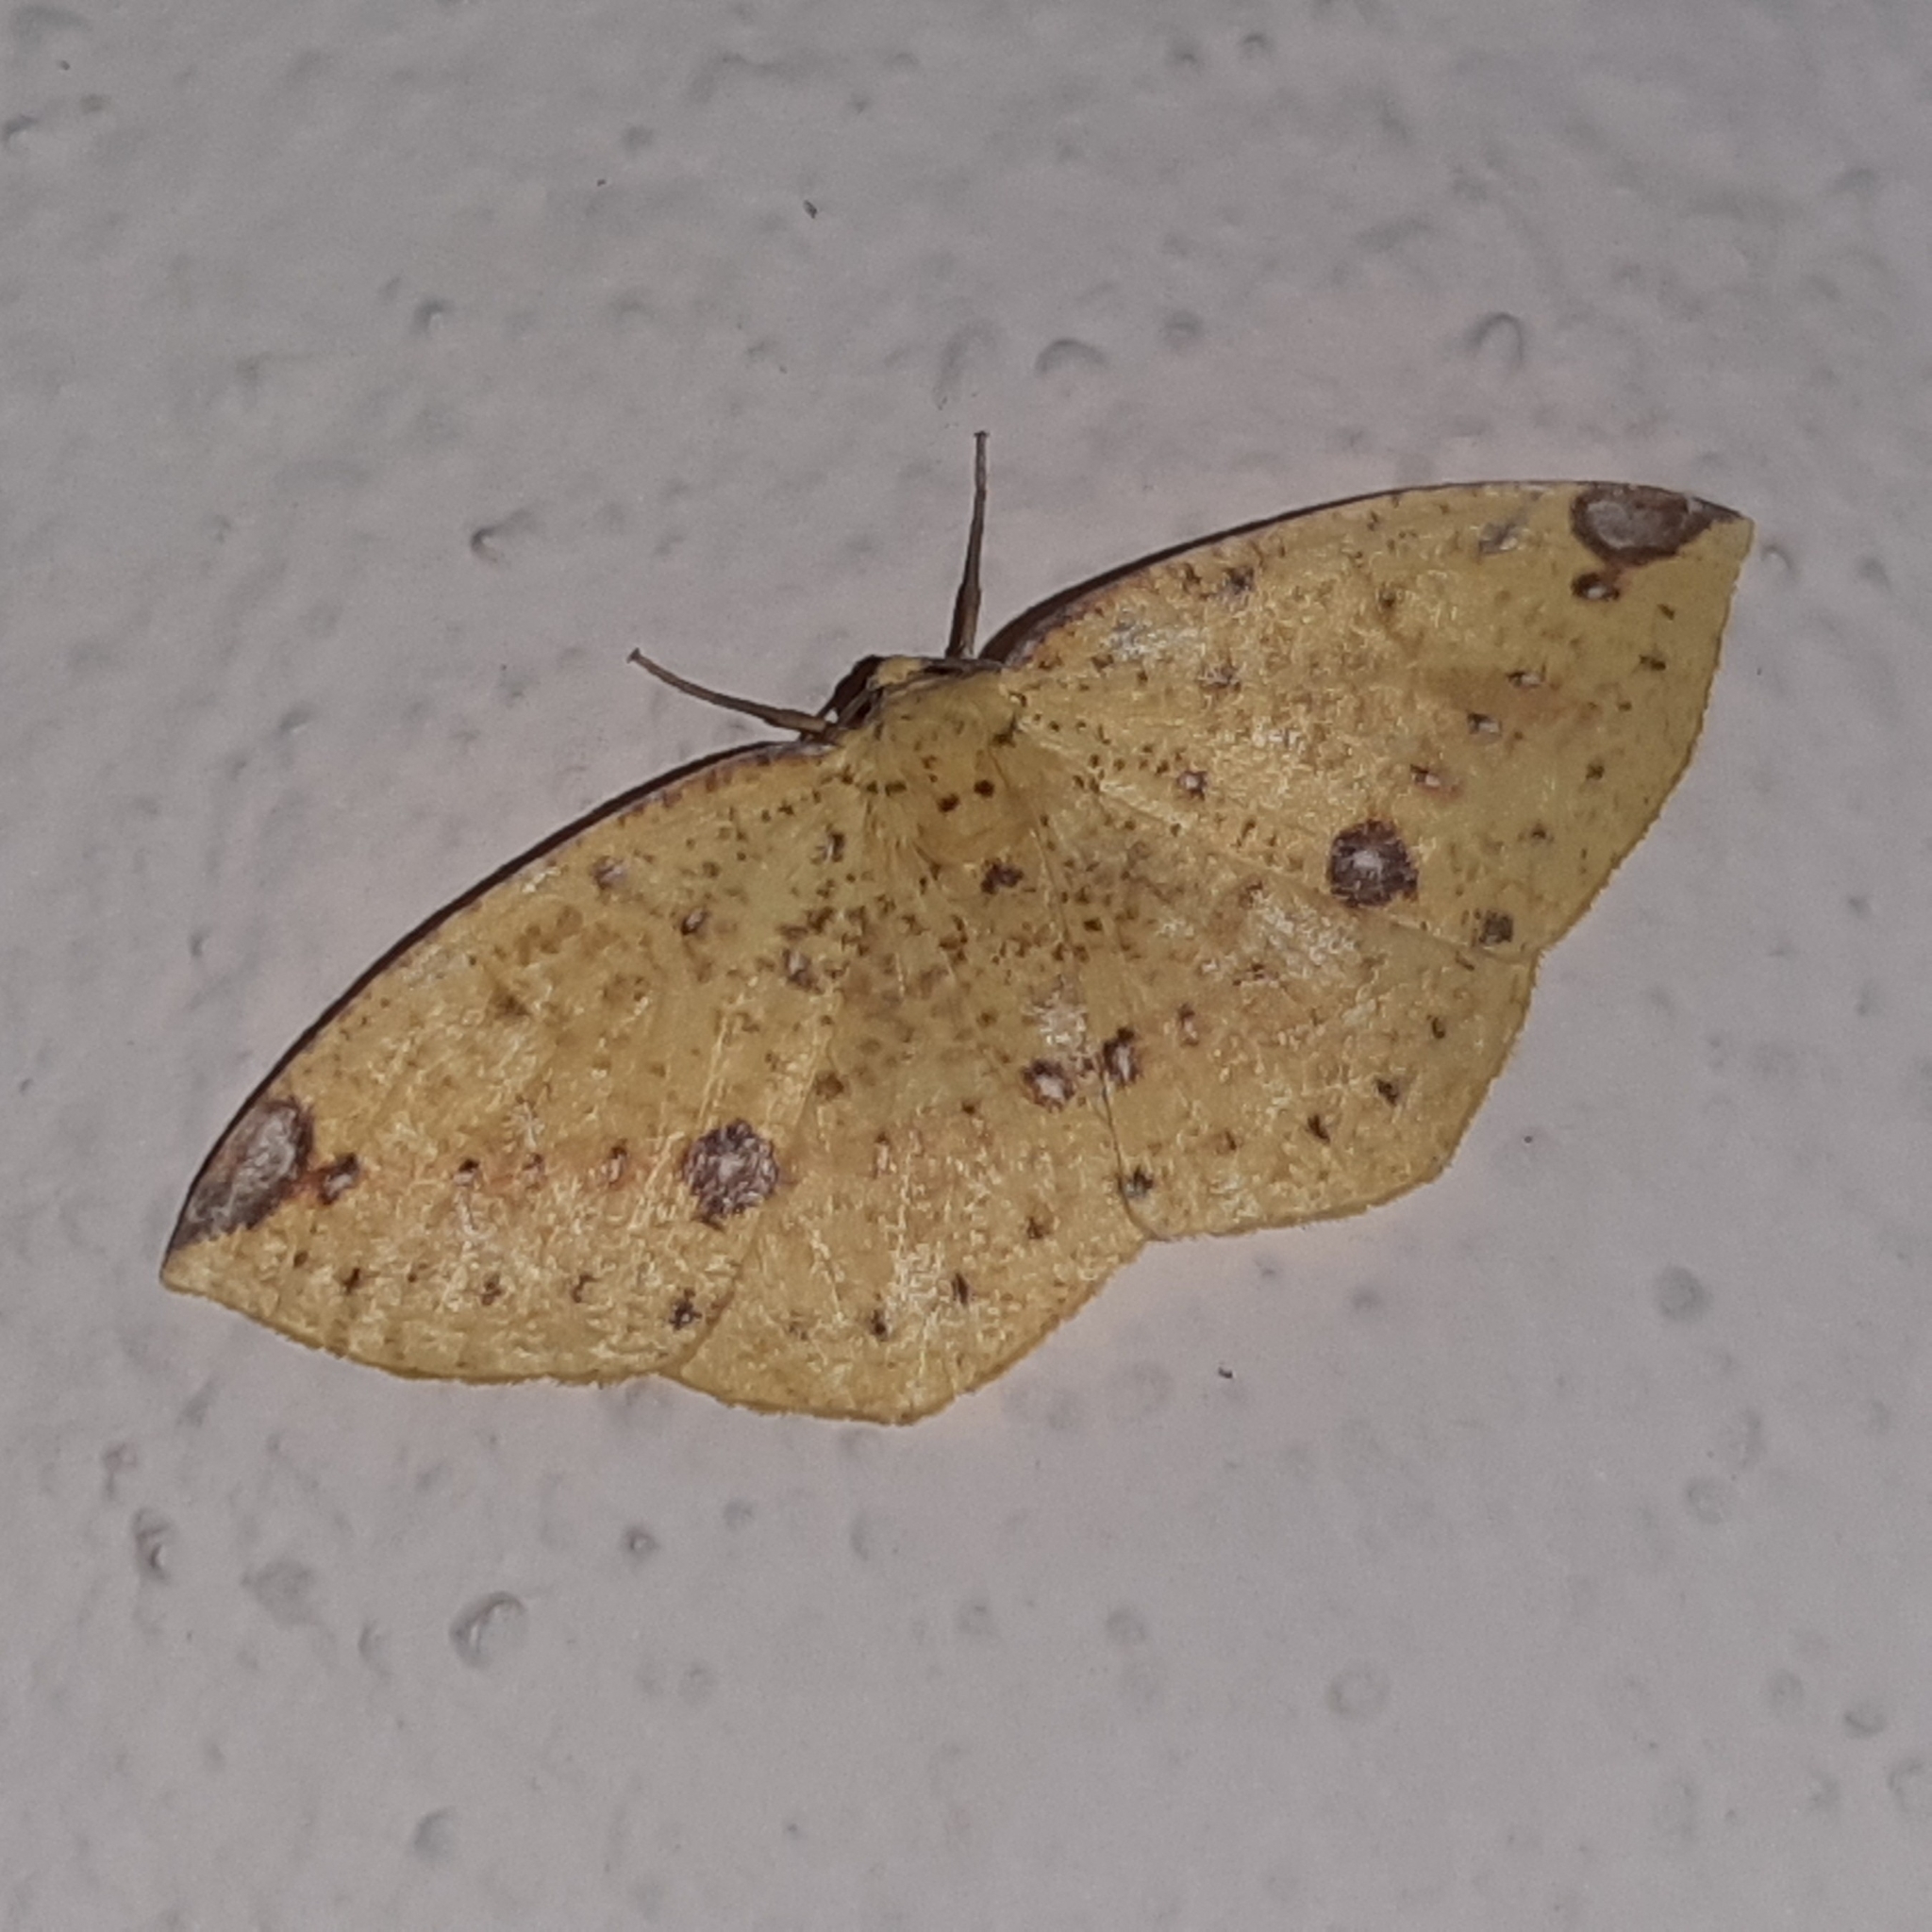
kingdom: Animalia
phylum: Arthropoda
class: Insecta
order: Lepidoptera
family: Geometridae
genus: Periclina
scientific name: Periclina apricaria
